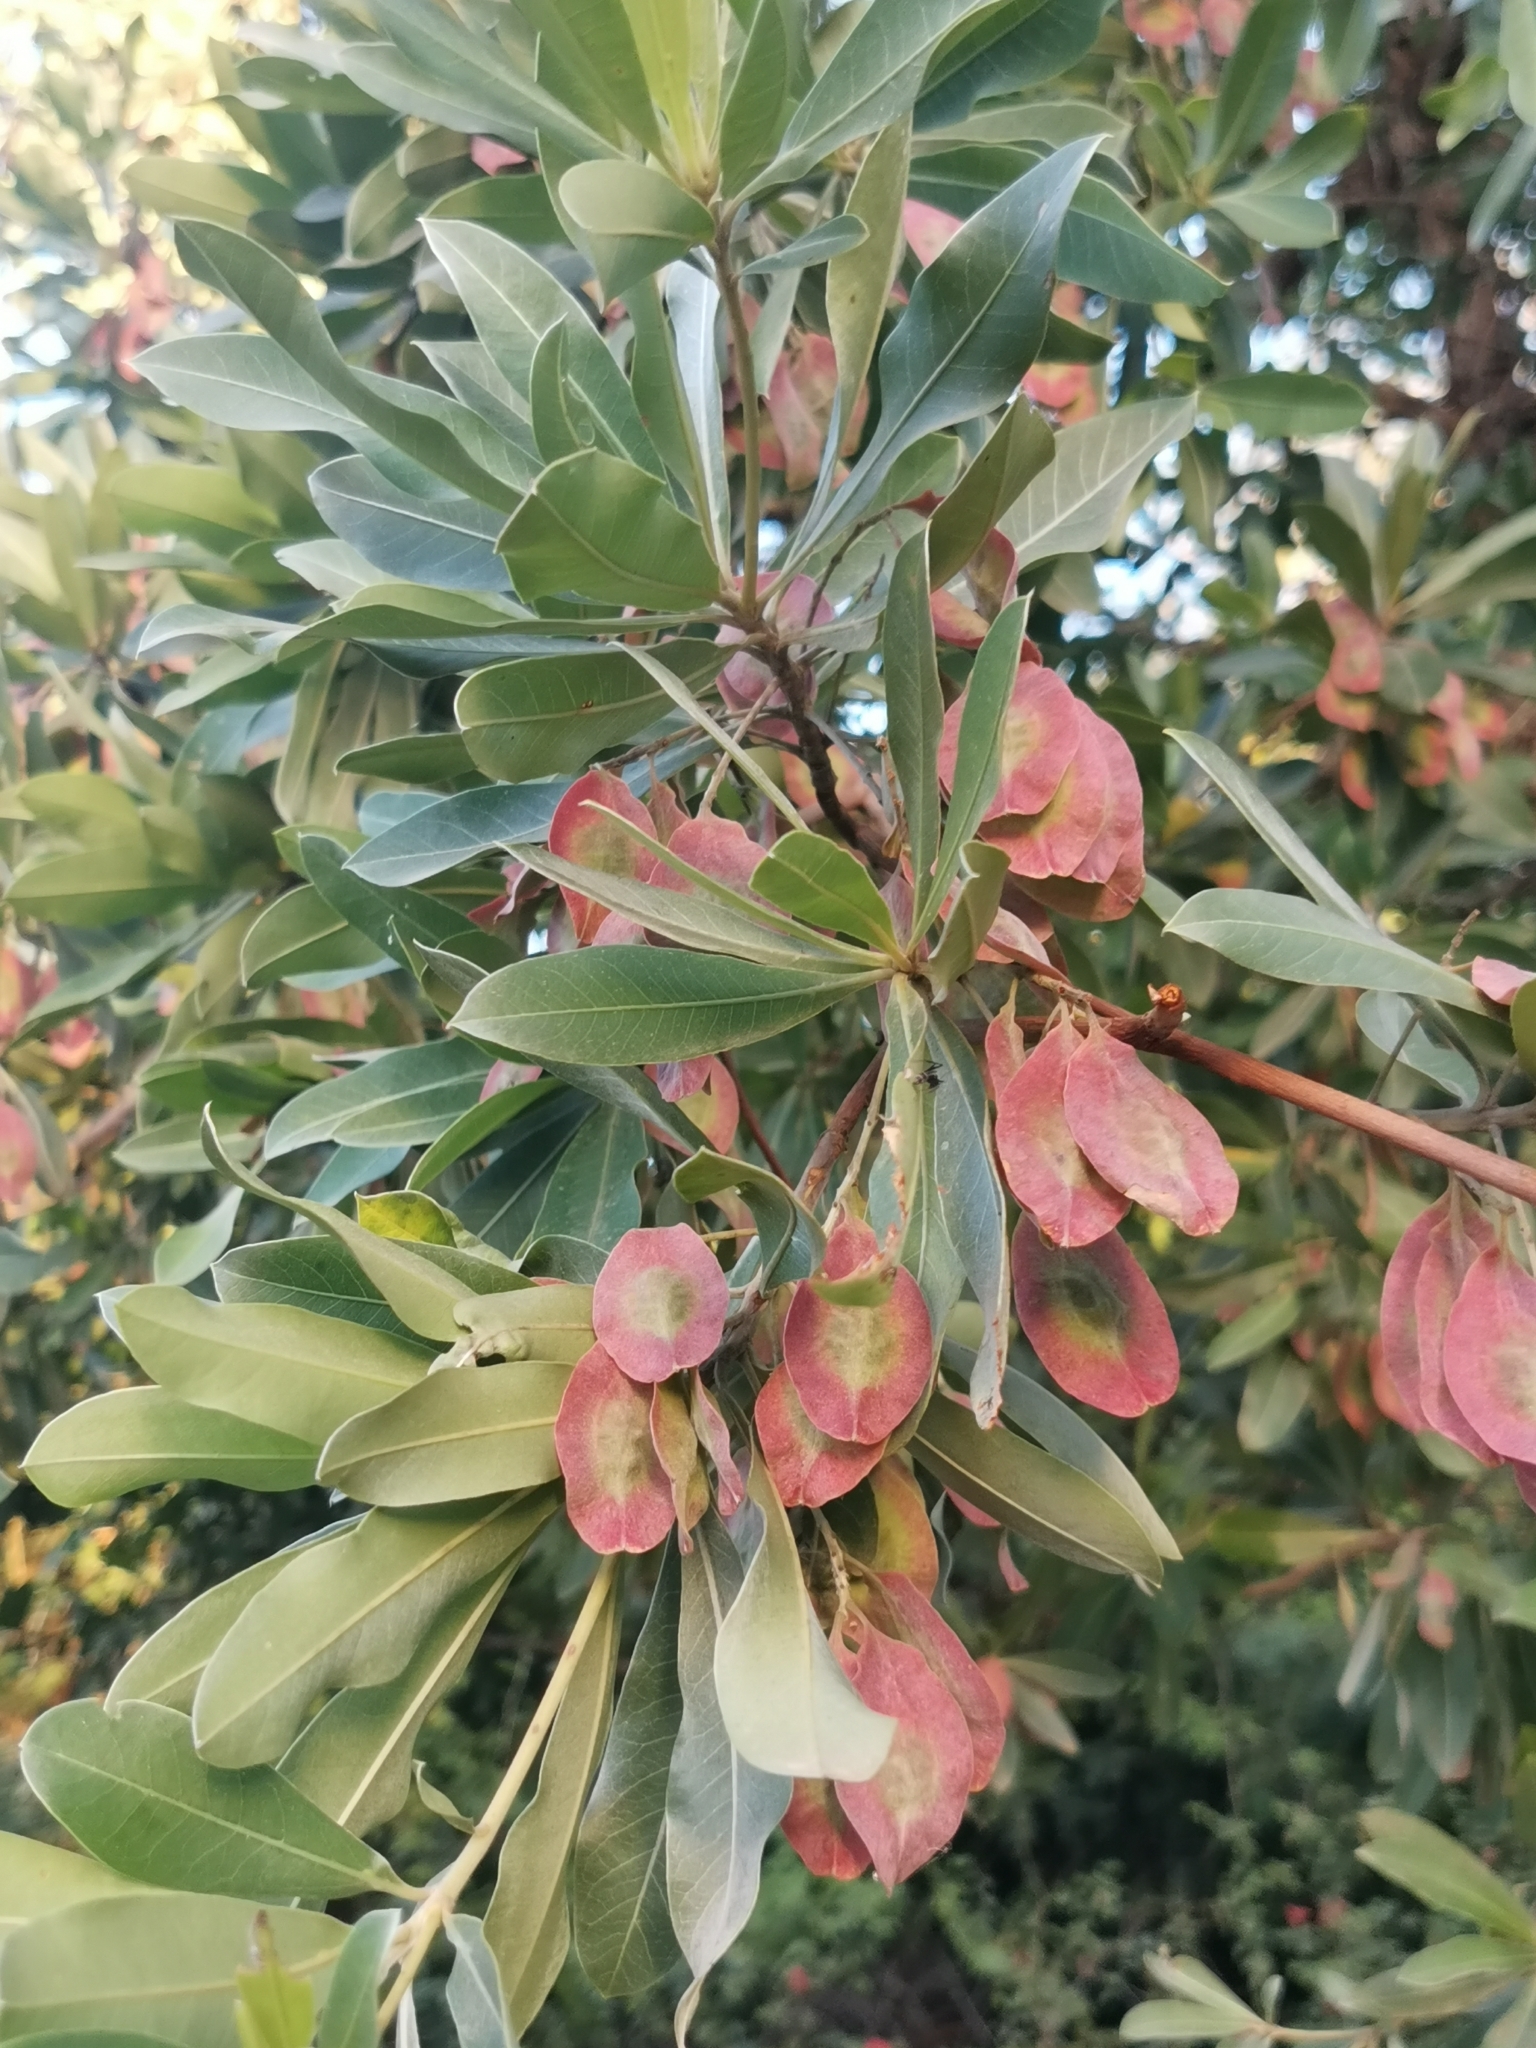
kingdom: Plantae
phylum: Tracheophyta
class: Magnoliopsida
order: Myrtales
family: Combretaceae
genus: Terminalia
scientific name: Terminalia sericea
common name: Clusterleaf
